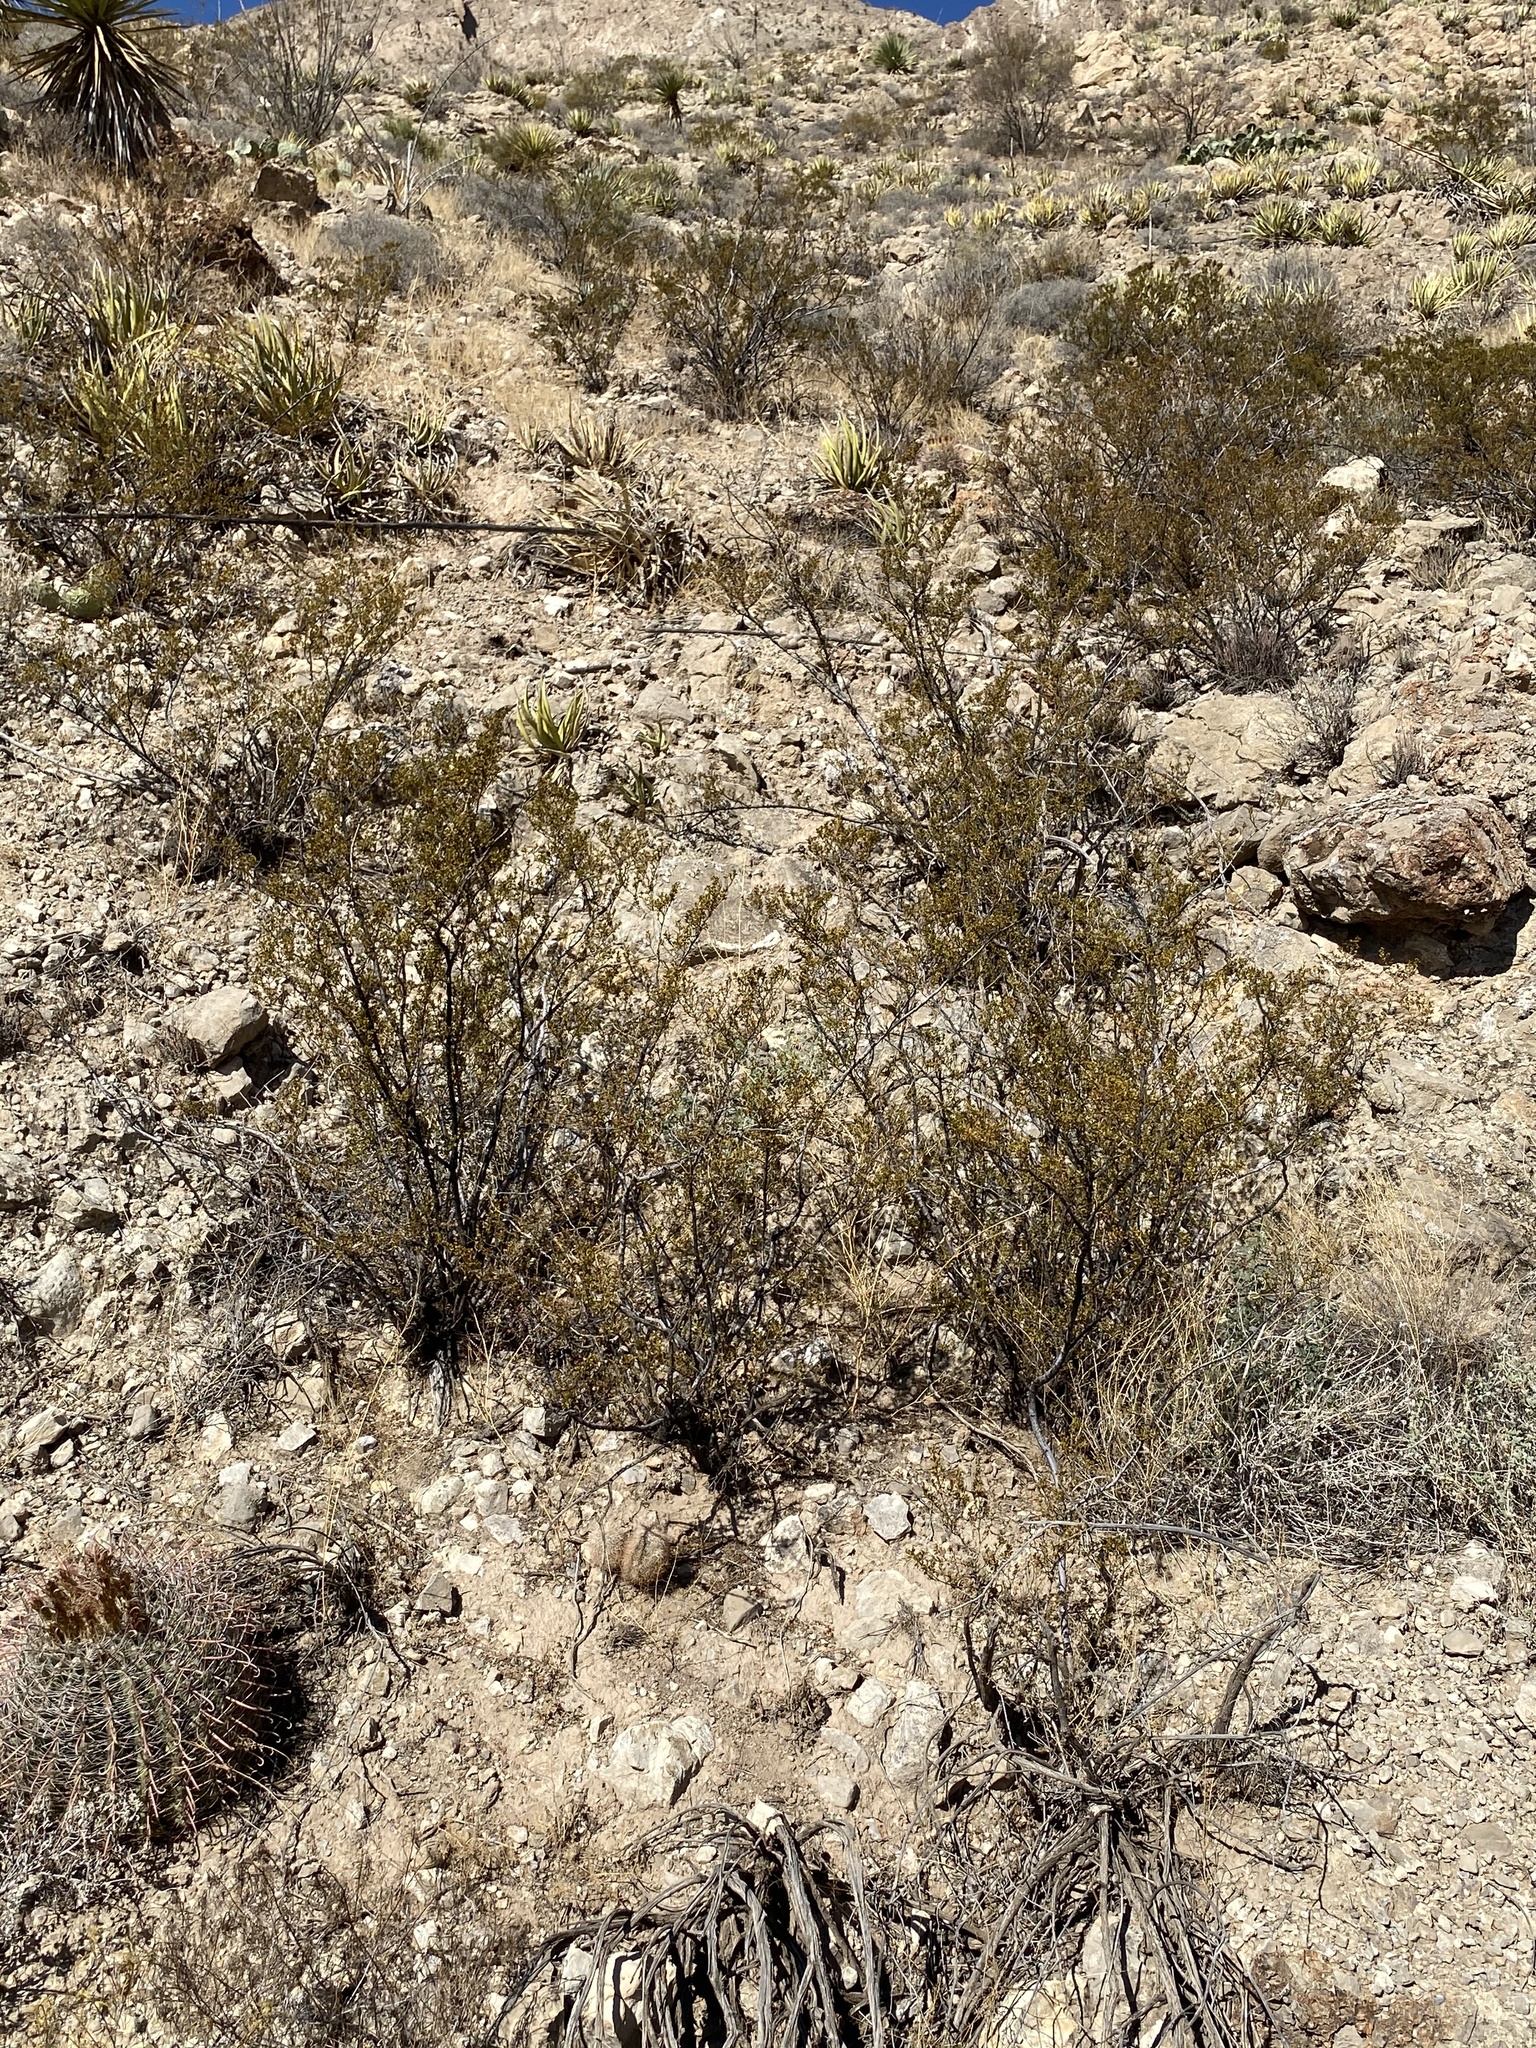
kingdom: Plantae
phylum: Tracheophyta
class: Magnoliopsida
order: Caryophyllales
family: Cactaceae
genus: Ferocactus
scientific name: Ferocactus wislizeni
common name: Candy barrel cactus
